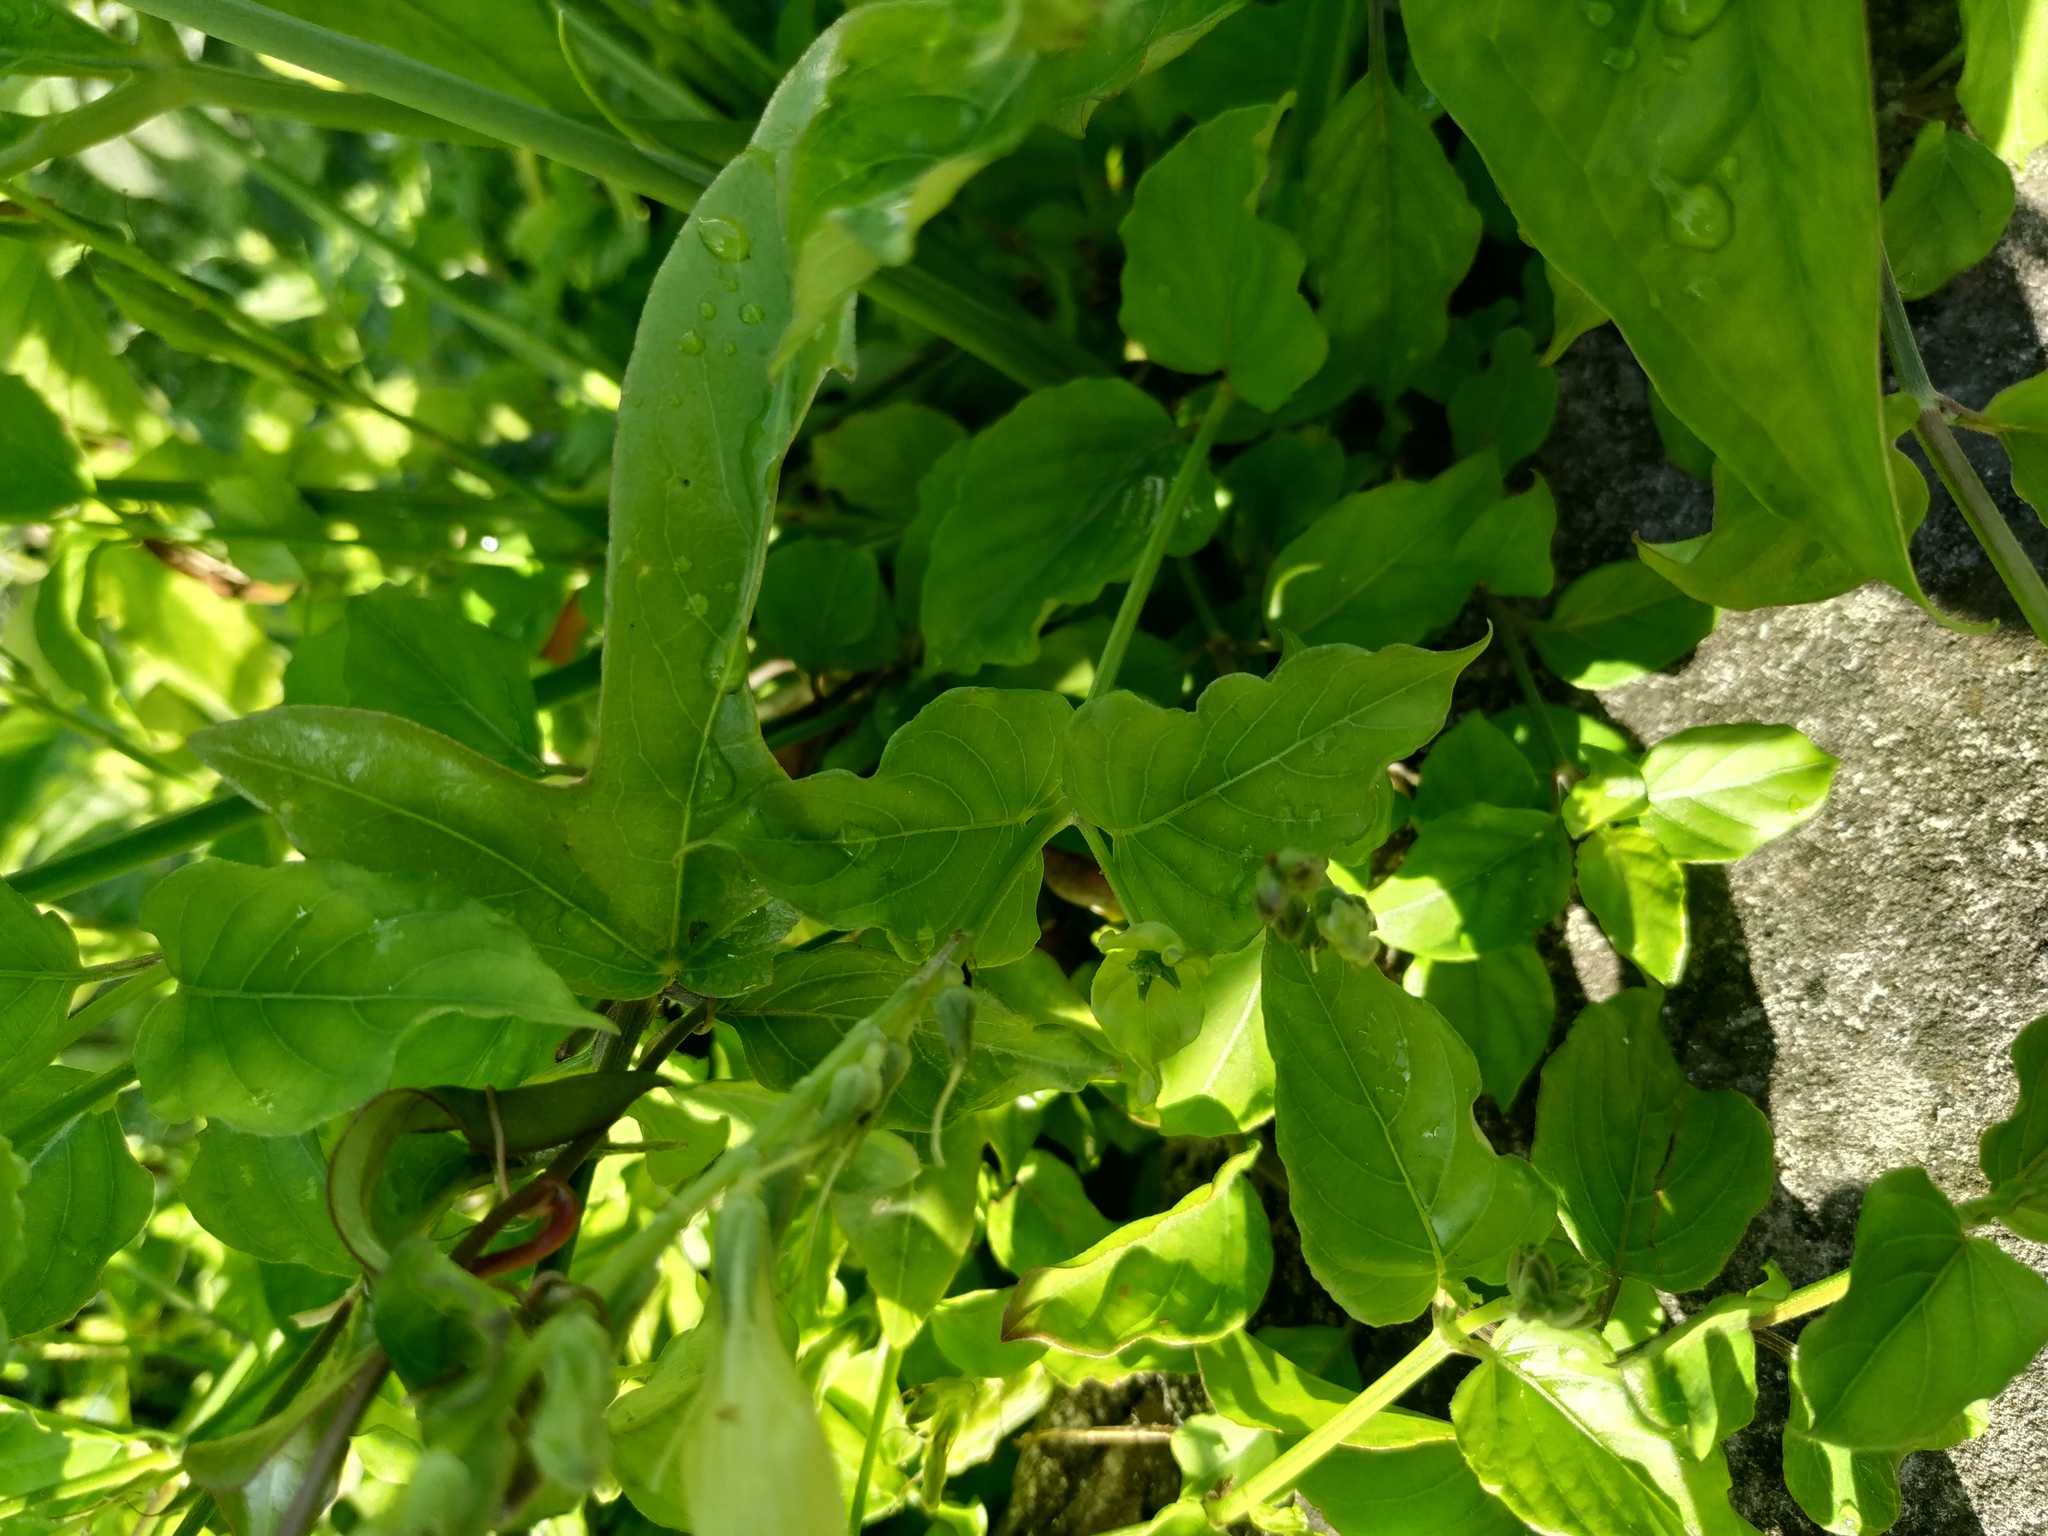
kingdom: Plantae
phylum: Tracheophyta
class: Magnoliopsida
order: Lamiales
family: Acanthaceae
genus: Asystasia
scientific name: Asystasia gangetica
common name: Chinese violet
